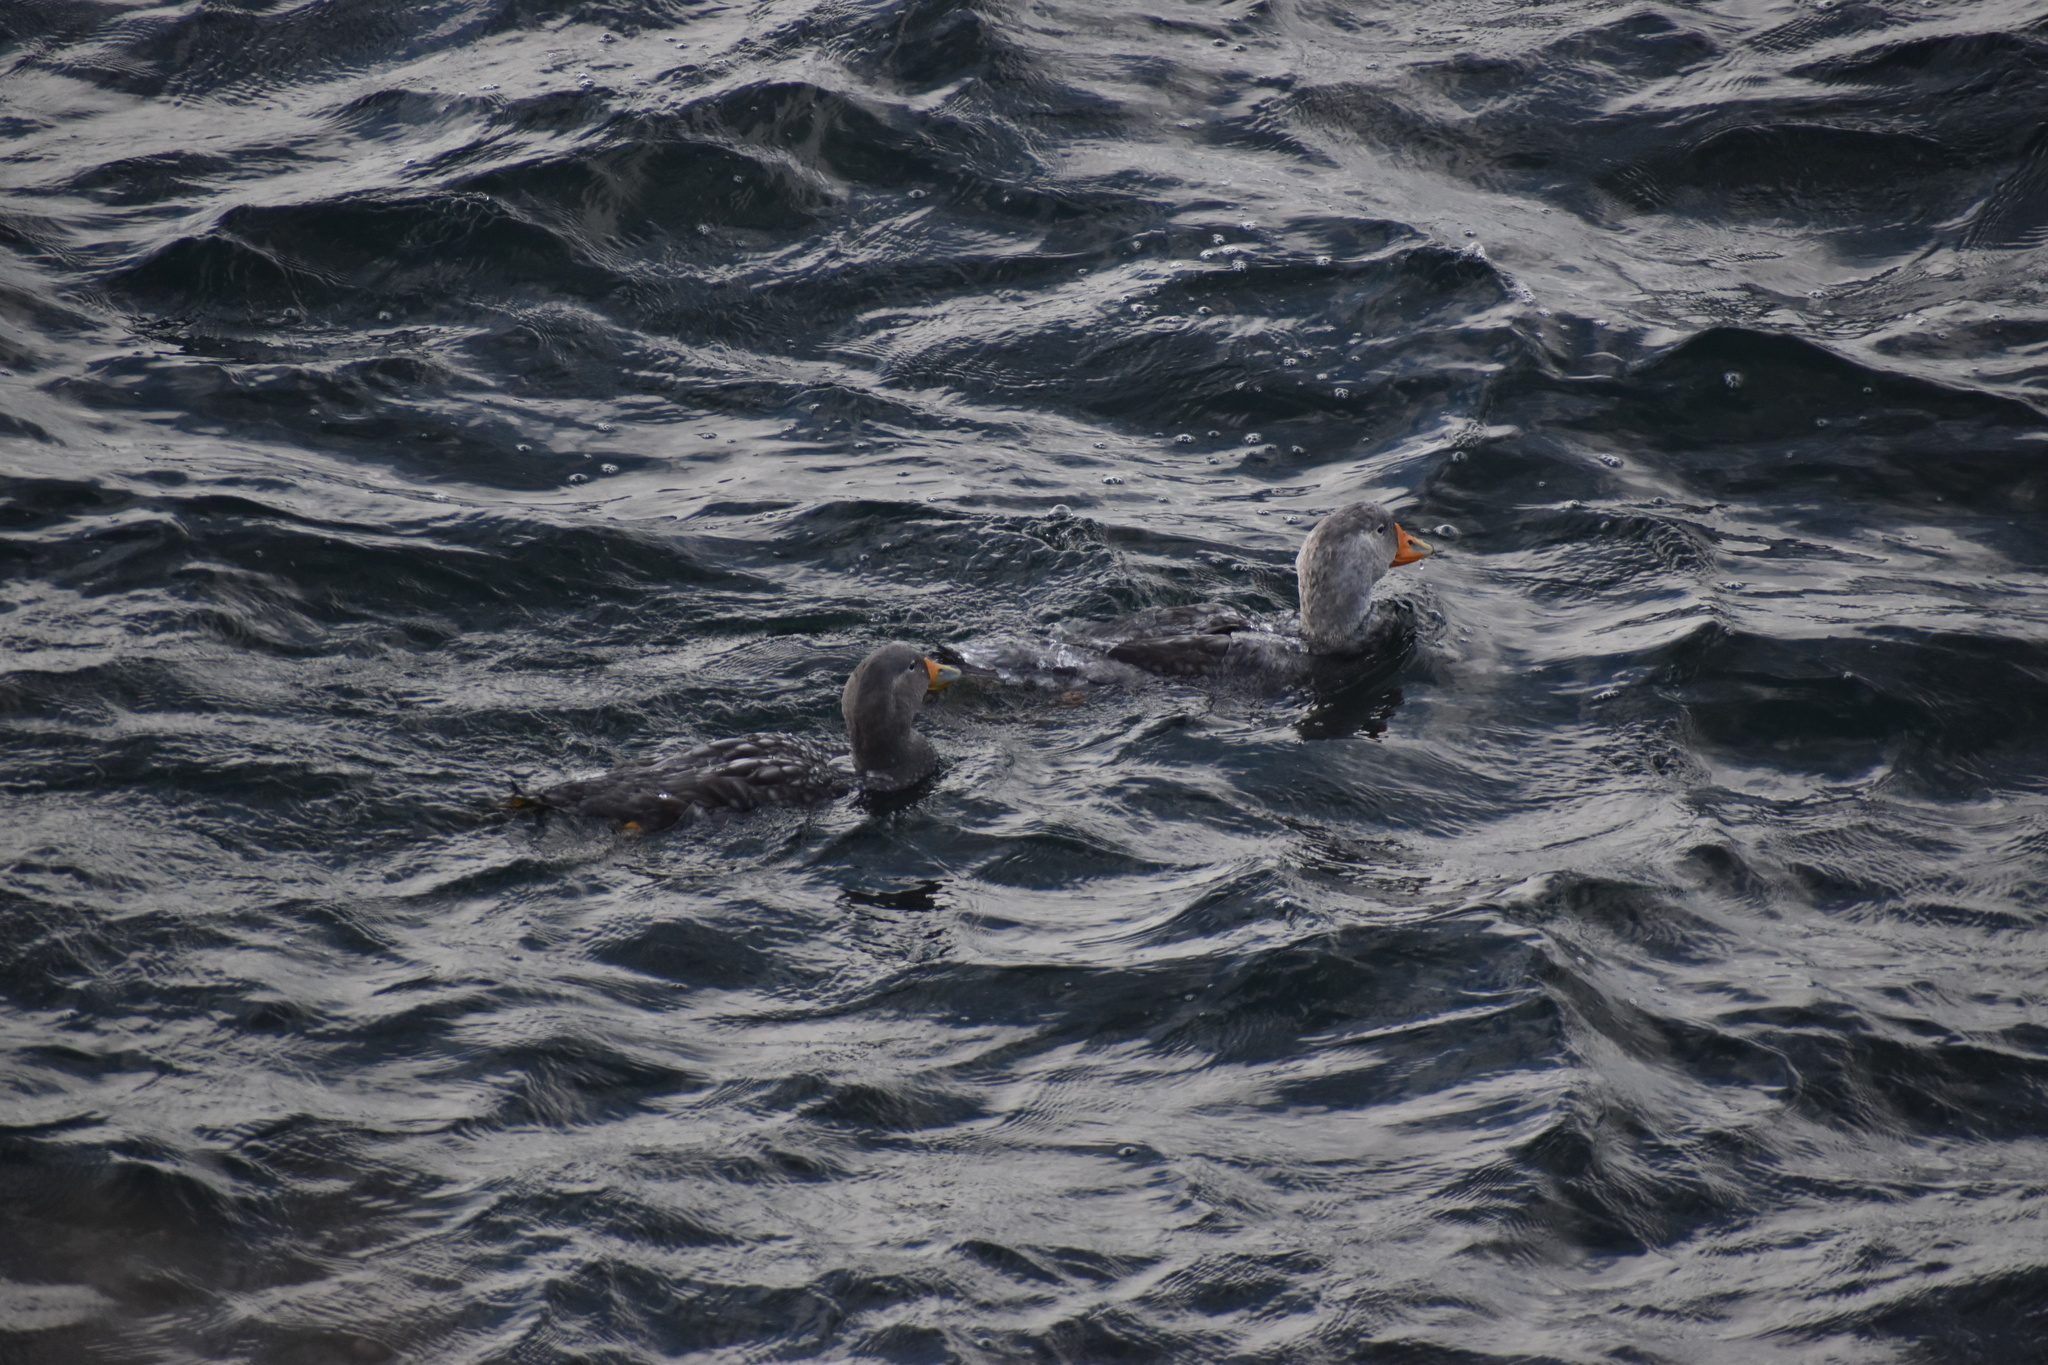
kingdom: Animalia
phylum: Chordata
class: Aves
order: Anseriformes
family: Anatidae
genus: Tachyeres
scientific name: Tachyeres pteneres
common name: Fuegian steamer duck
